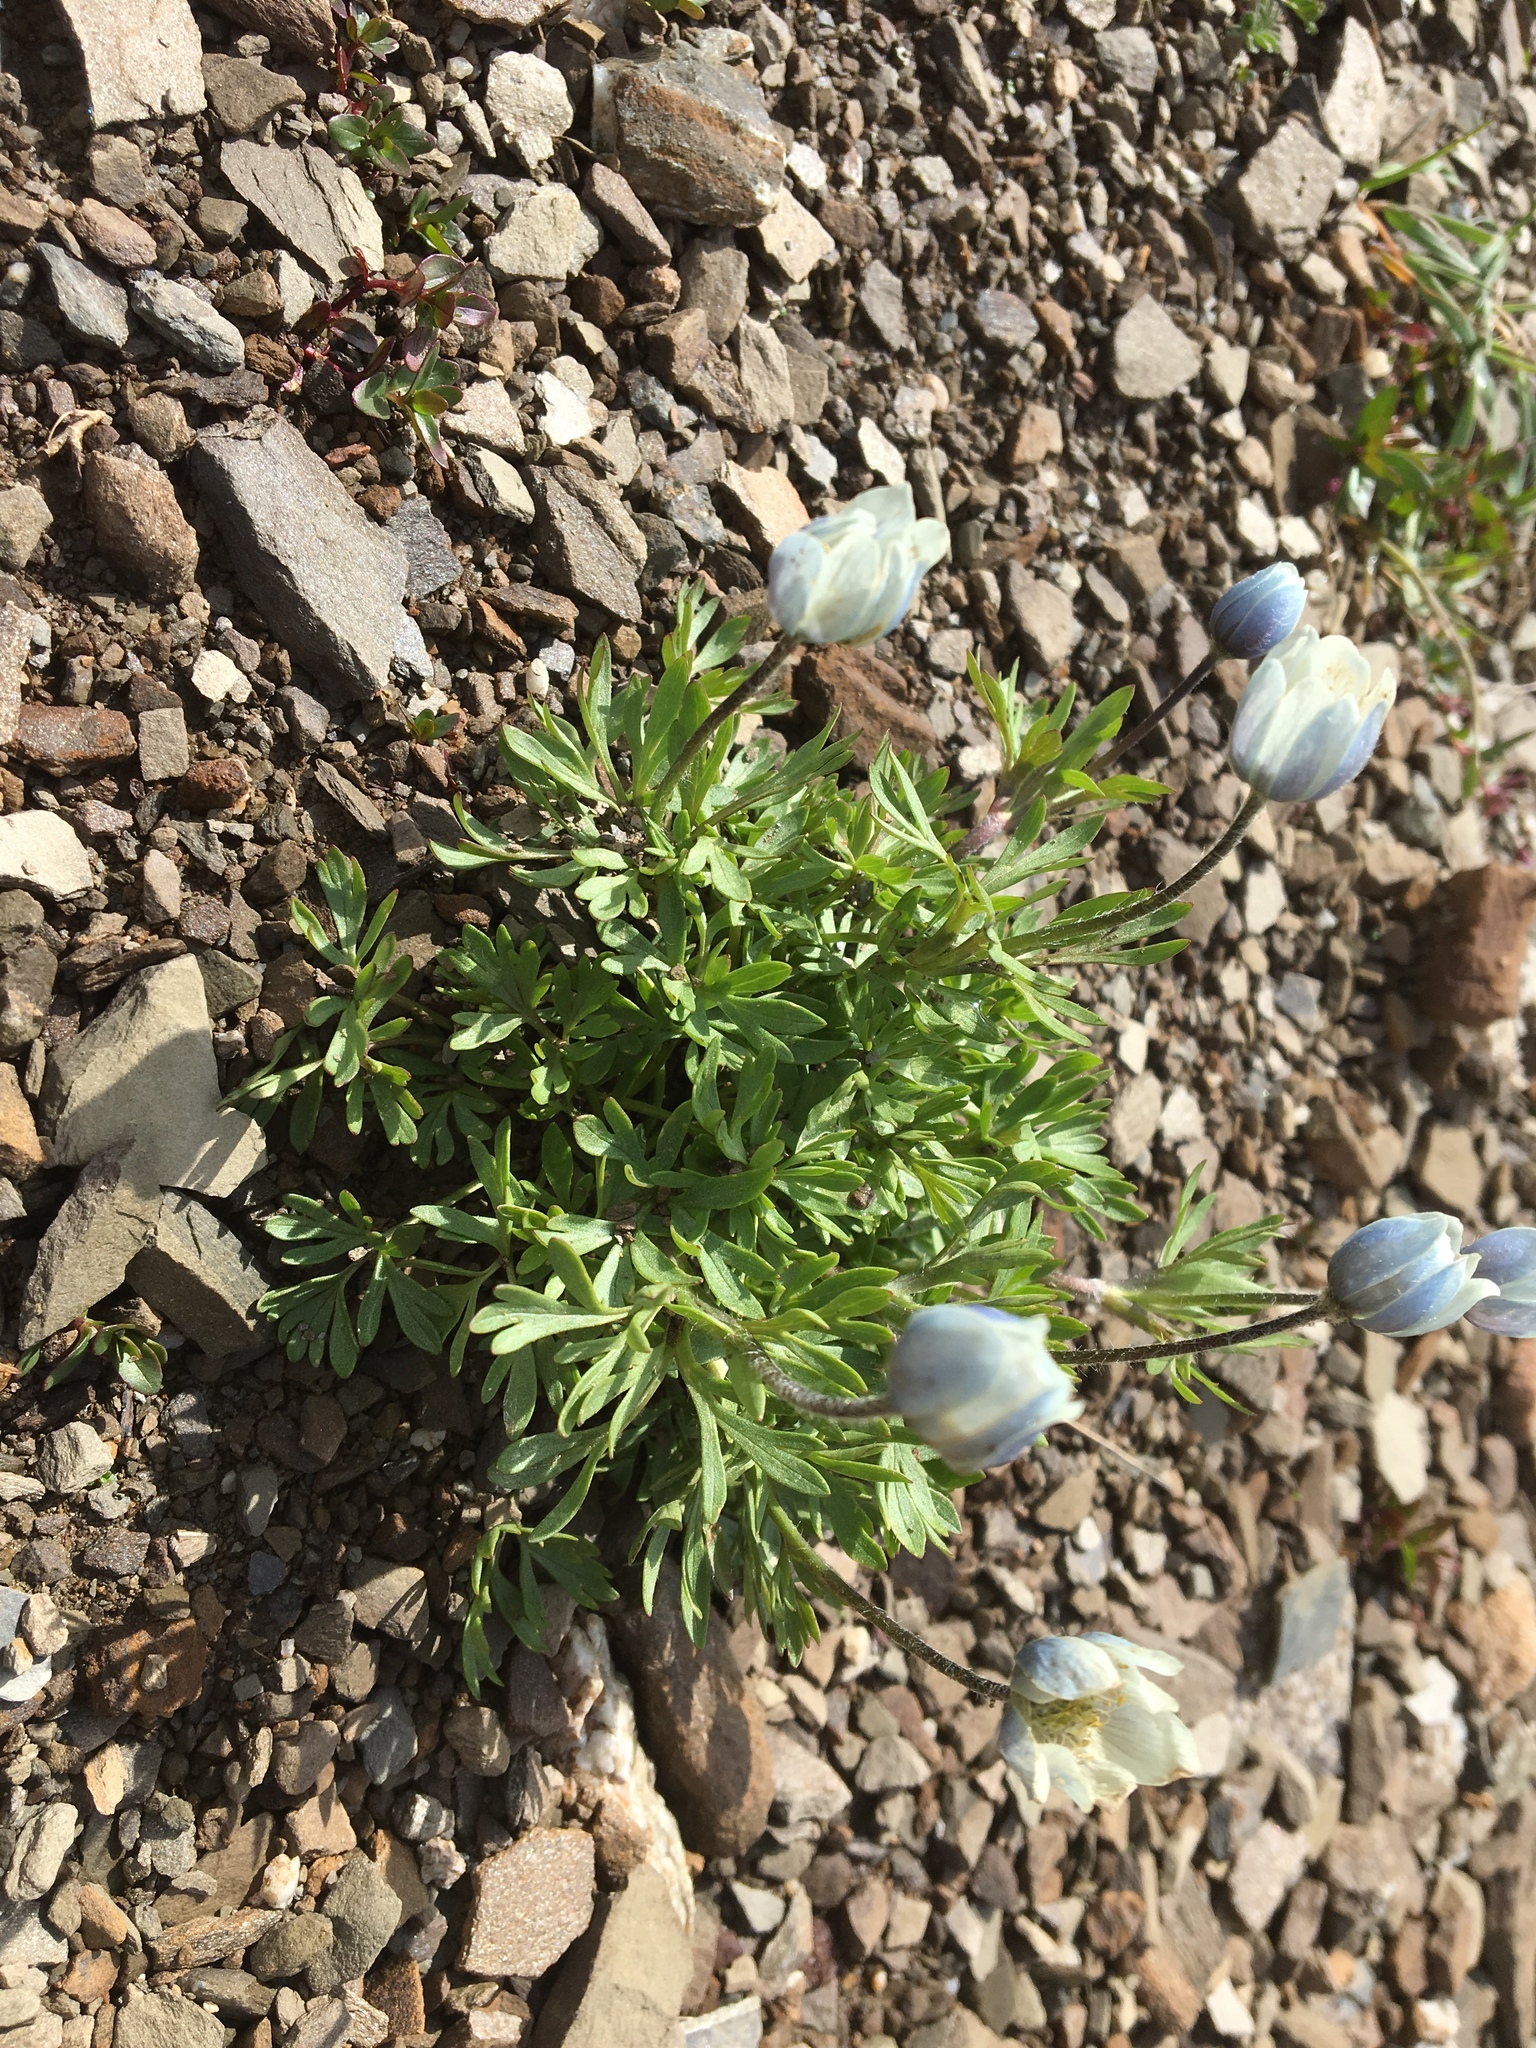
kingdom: Plantae
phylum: Tracheophyta
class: Magnoliopsida
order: Ranunculales
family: Ranunculaceae
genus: Anemone
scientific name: Anemone drummondii
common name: Drummond's anemone
